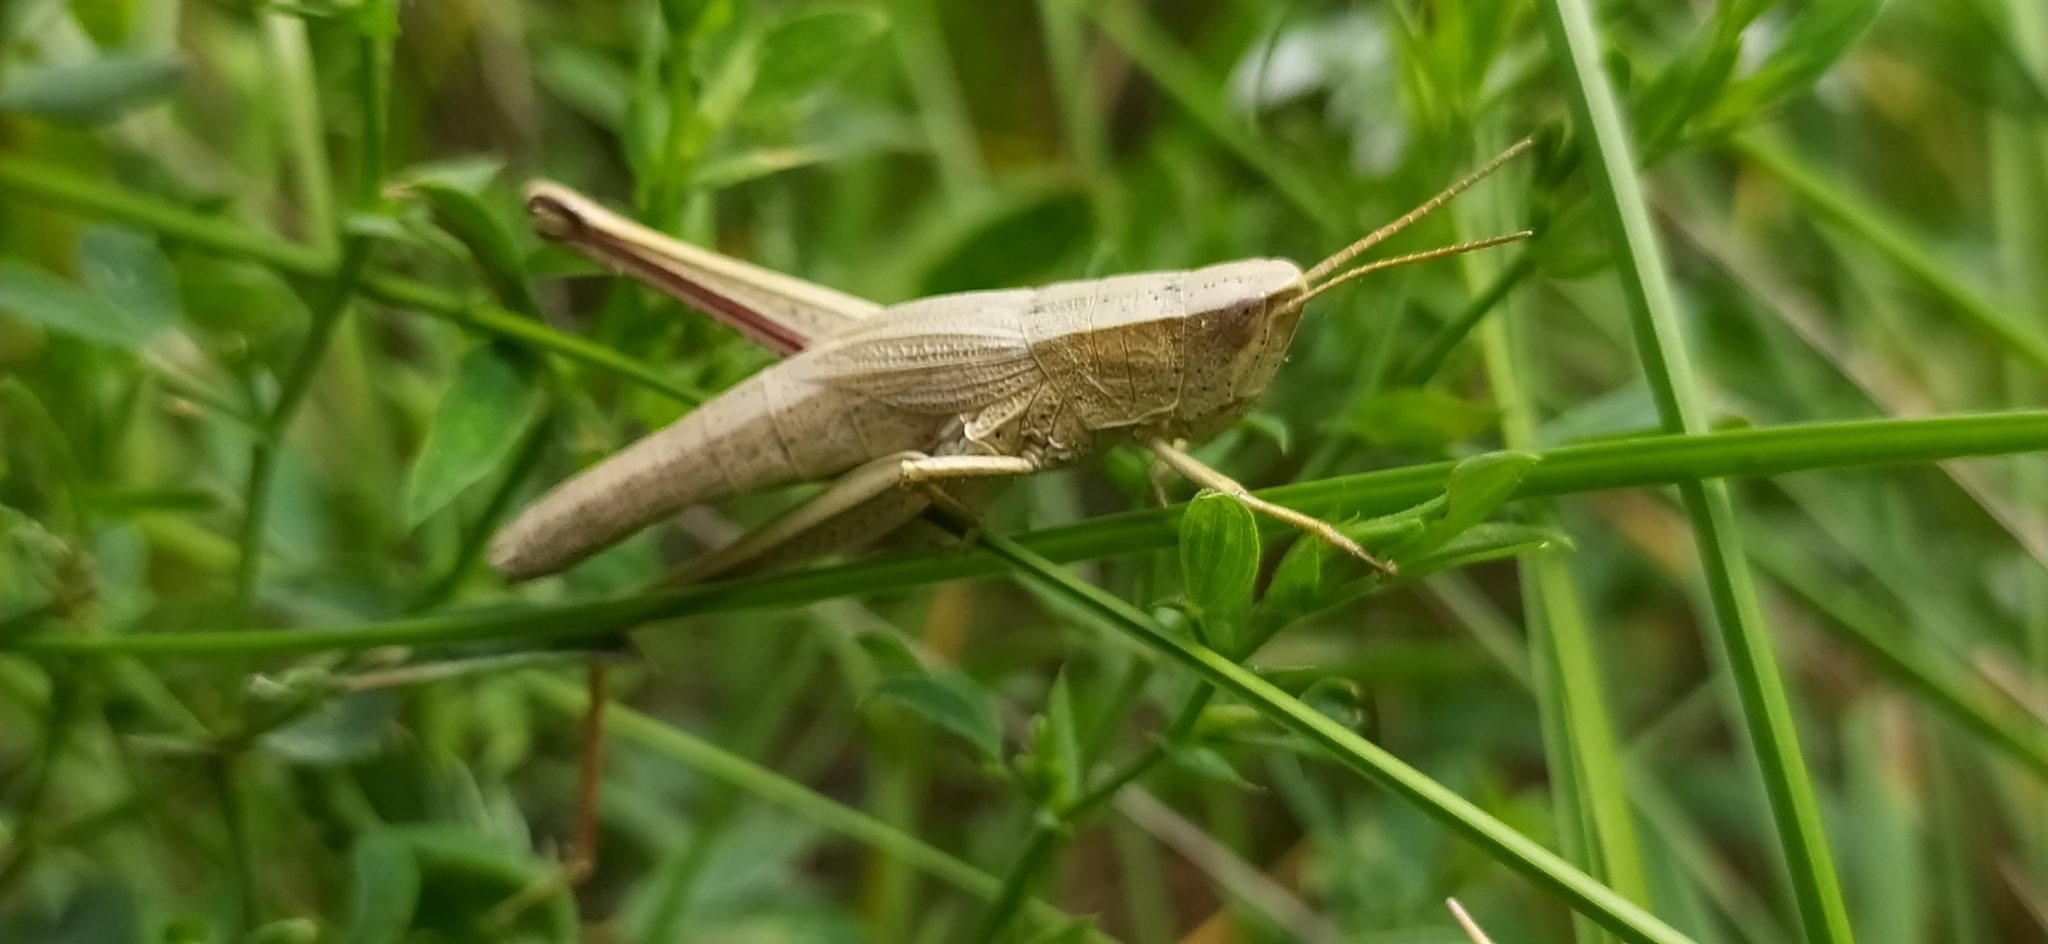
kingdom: Animalia
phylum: Arthropoda
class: Insecta
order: Orthoptera
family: Acrididae
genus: Chrysochraon
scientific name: Chrysochraon dispar
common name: Large gold grasshopper
